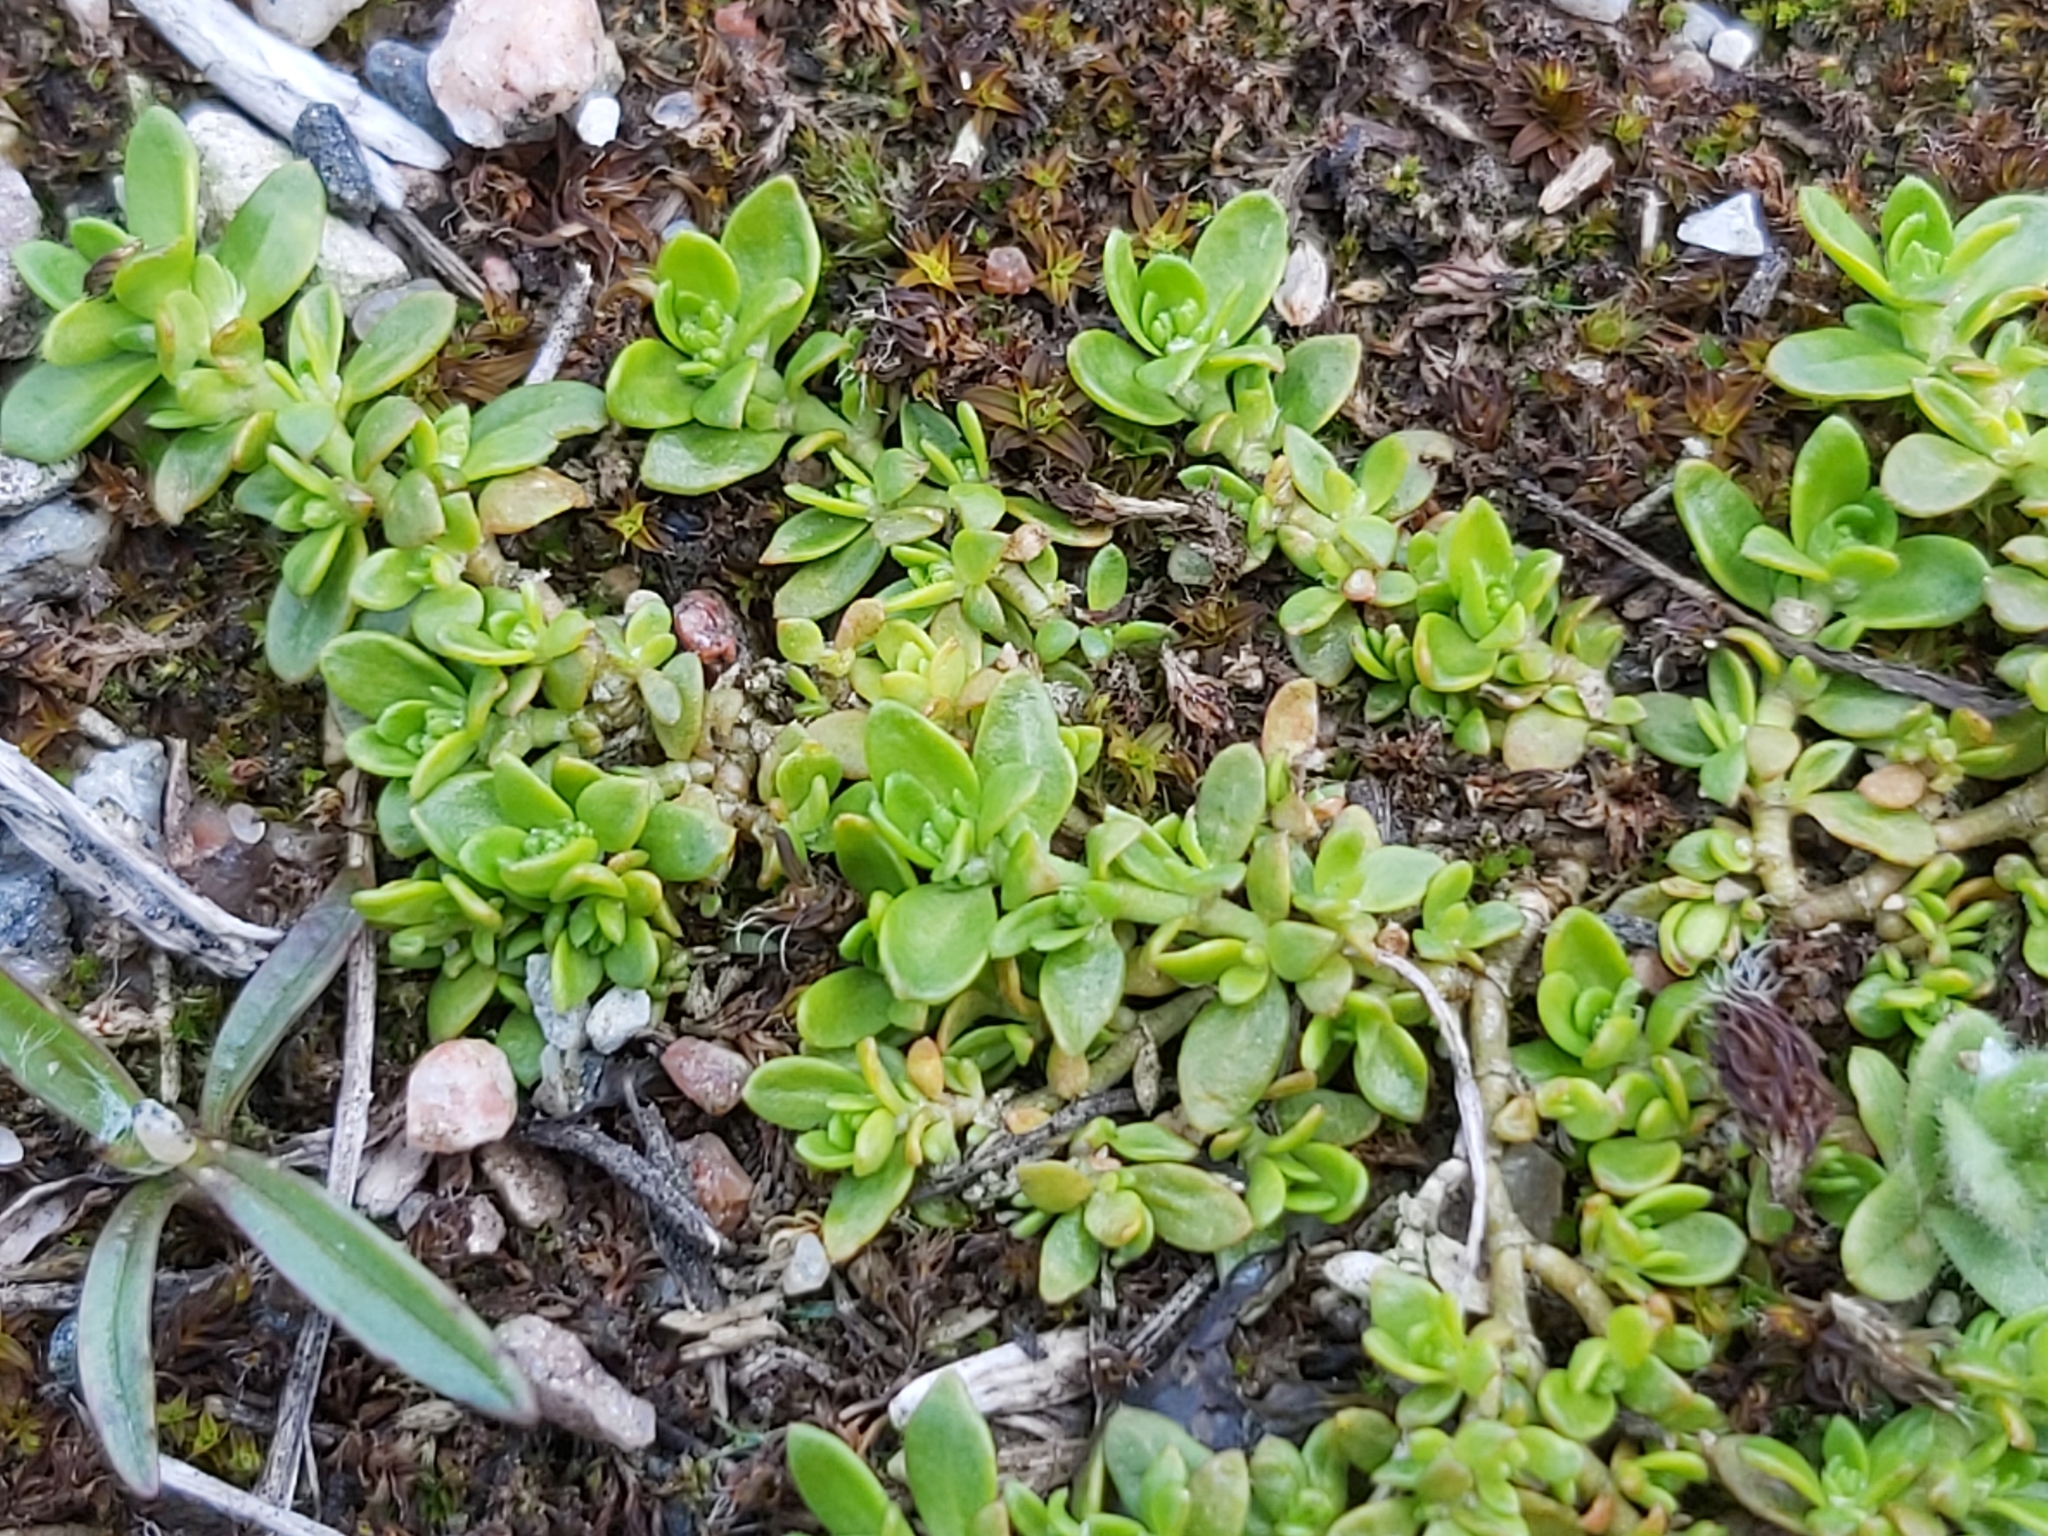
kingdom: Plantae
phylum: Tracheophyta
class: Magnoliopsida
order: Caryophyllales
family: Caryophyllaceae
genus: Herniaria
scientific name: Herniaria glabra
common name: Smooth rupturewort
